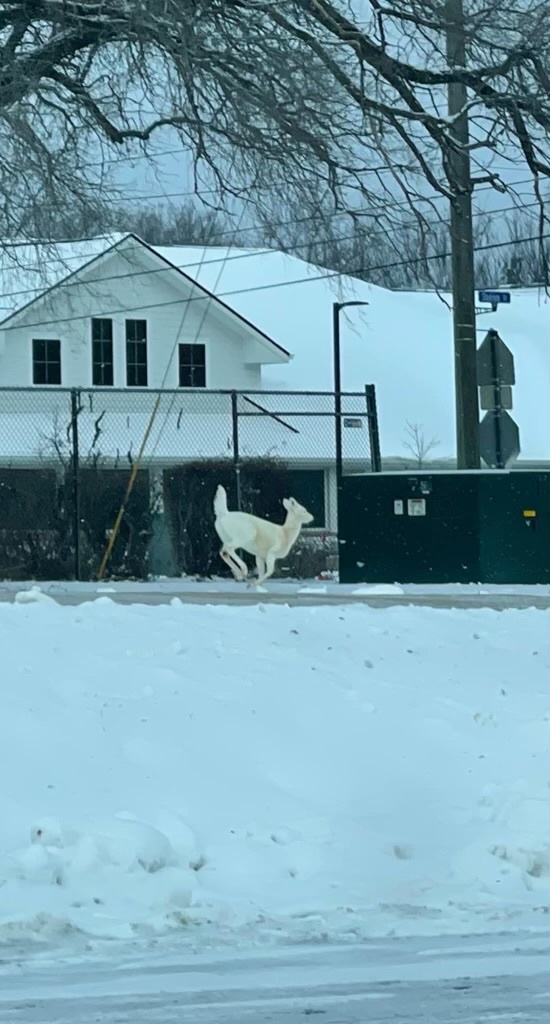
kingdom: Animalia
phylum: Chordata
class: Mammalia
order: Artiodactyla
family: Cervidae
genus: Odocoileus
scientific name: Odocoileus virginianus
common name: White-tailed deer
